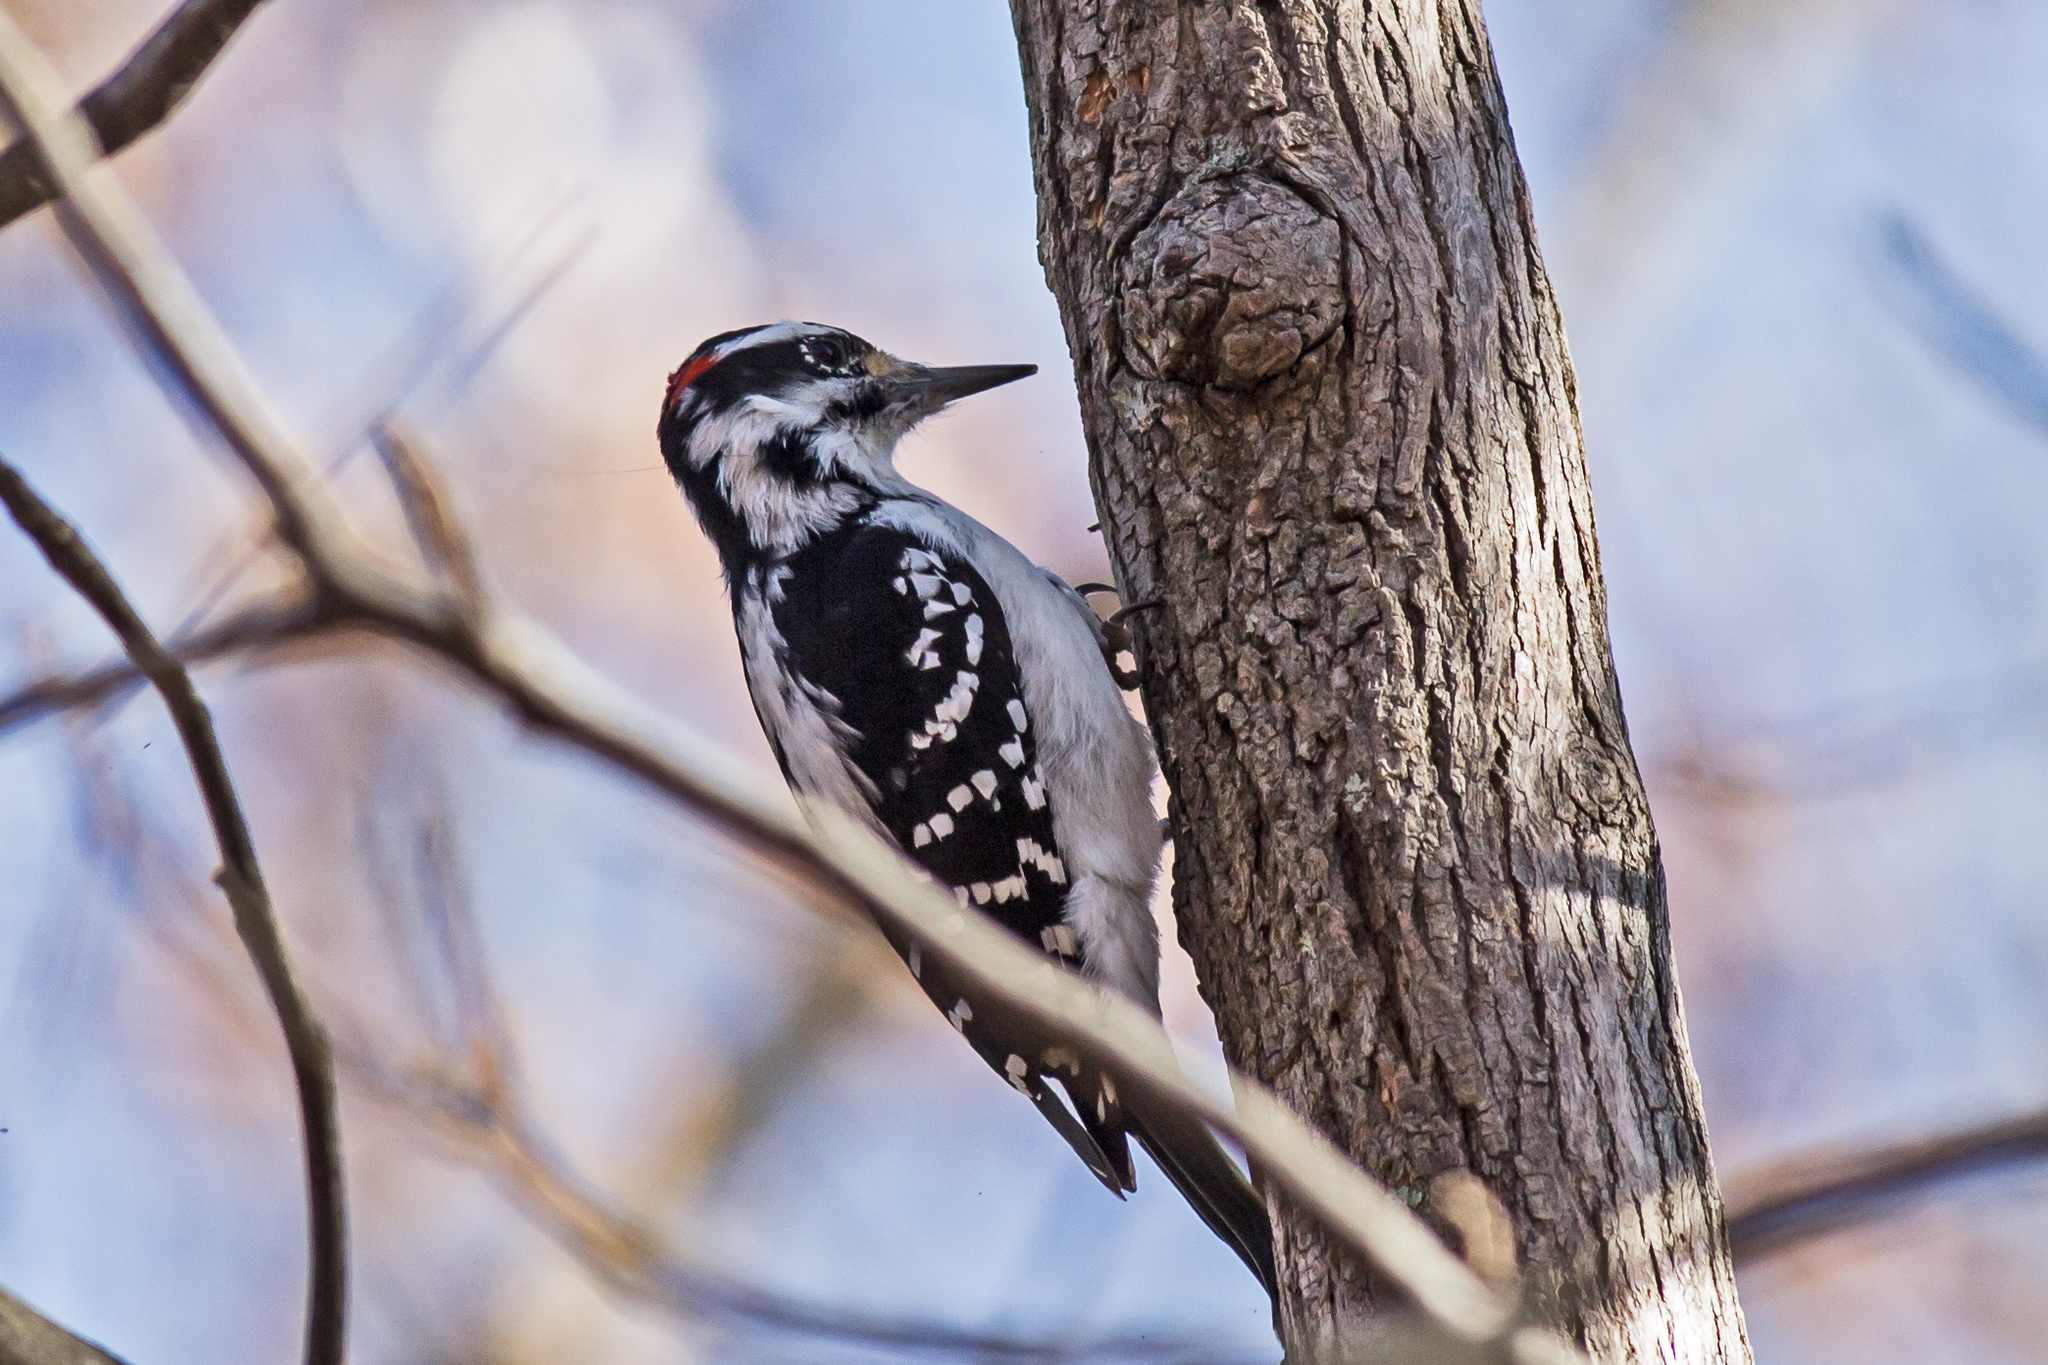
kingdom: Animalia
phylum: Chordata
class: Aves
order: Piciformes
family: Picidae
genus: Leuconotopicus
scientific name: Leuconotopicus villosus
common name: Hairy woodpecker
